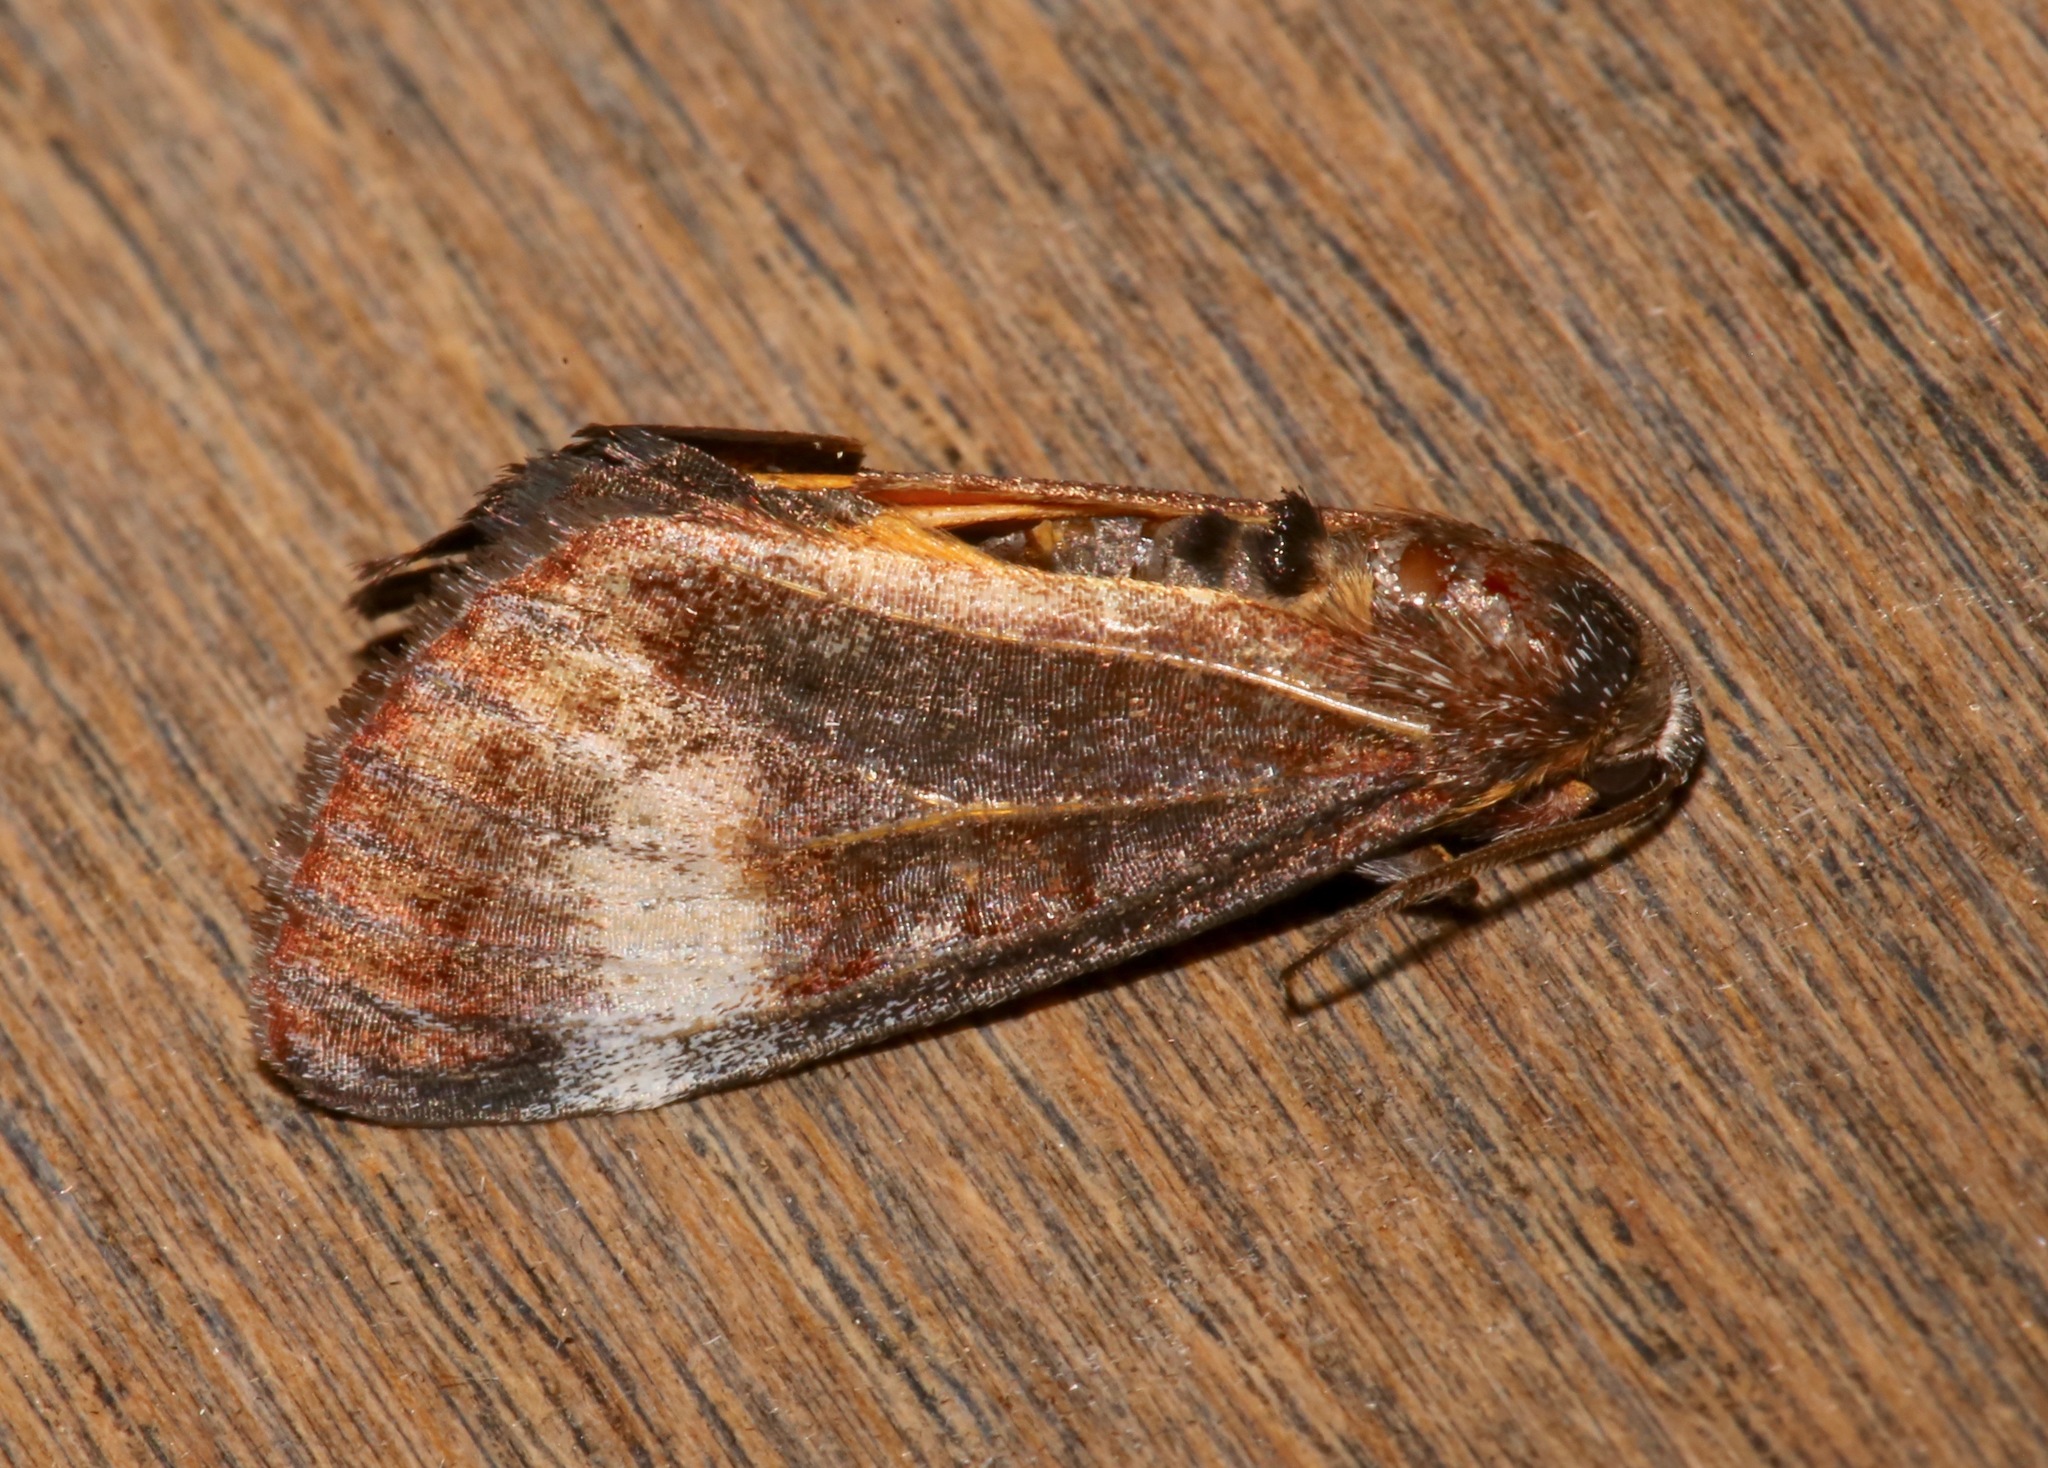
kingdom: Animalia
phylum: Arthropoda
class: Insecta
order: Lepidoptera
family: Noctuidae
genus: Gerra
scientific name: Gerra sevorsa
